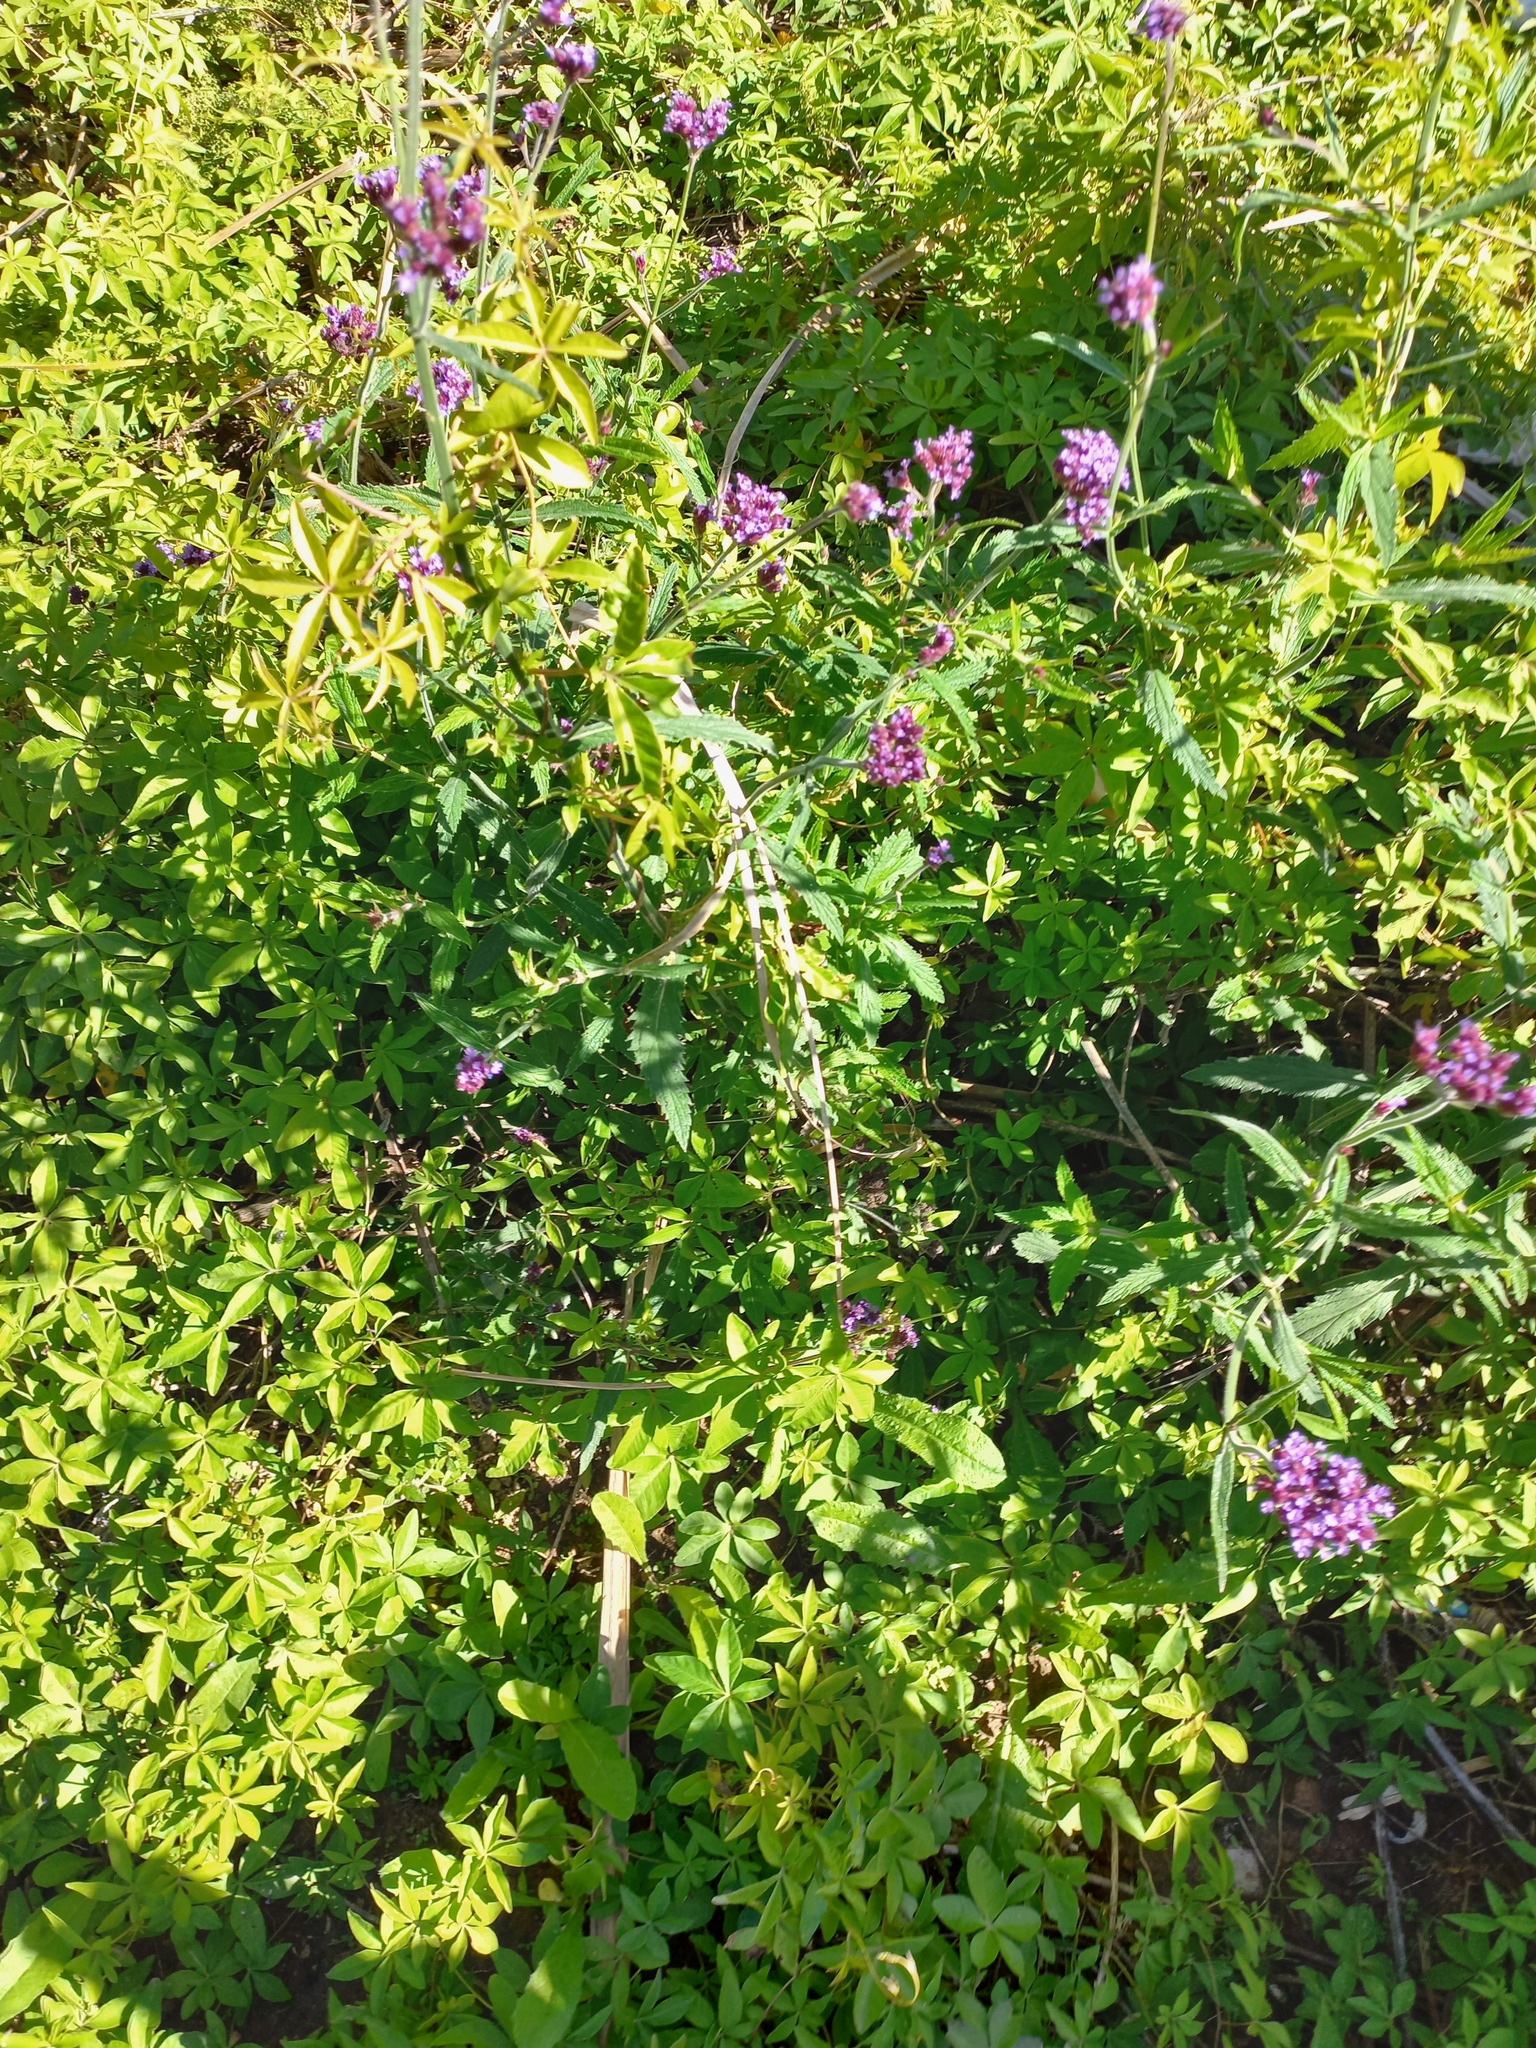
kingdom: Plantae
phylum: Tracheophyta
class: Magnoliopsida
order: Lamiales
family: Verbenaceae
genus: Verbena
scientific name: Verbena bonariensis
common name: Purpletop vervain
